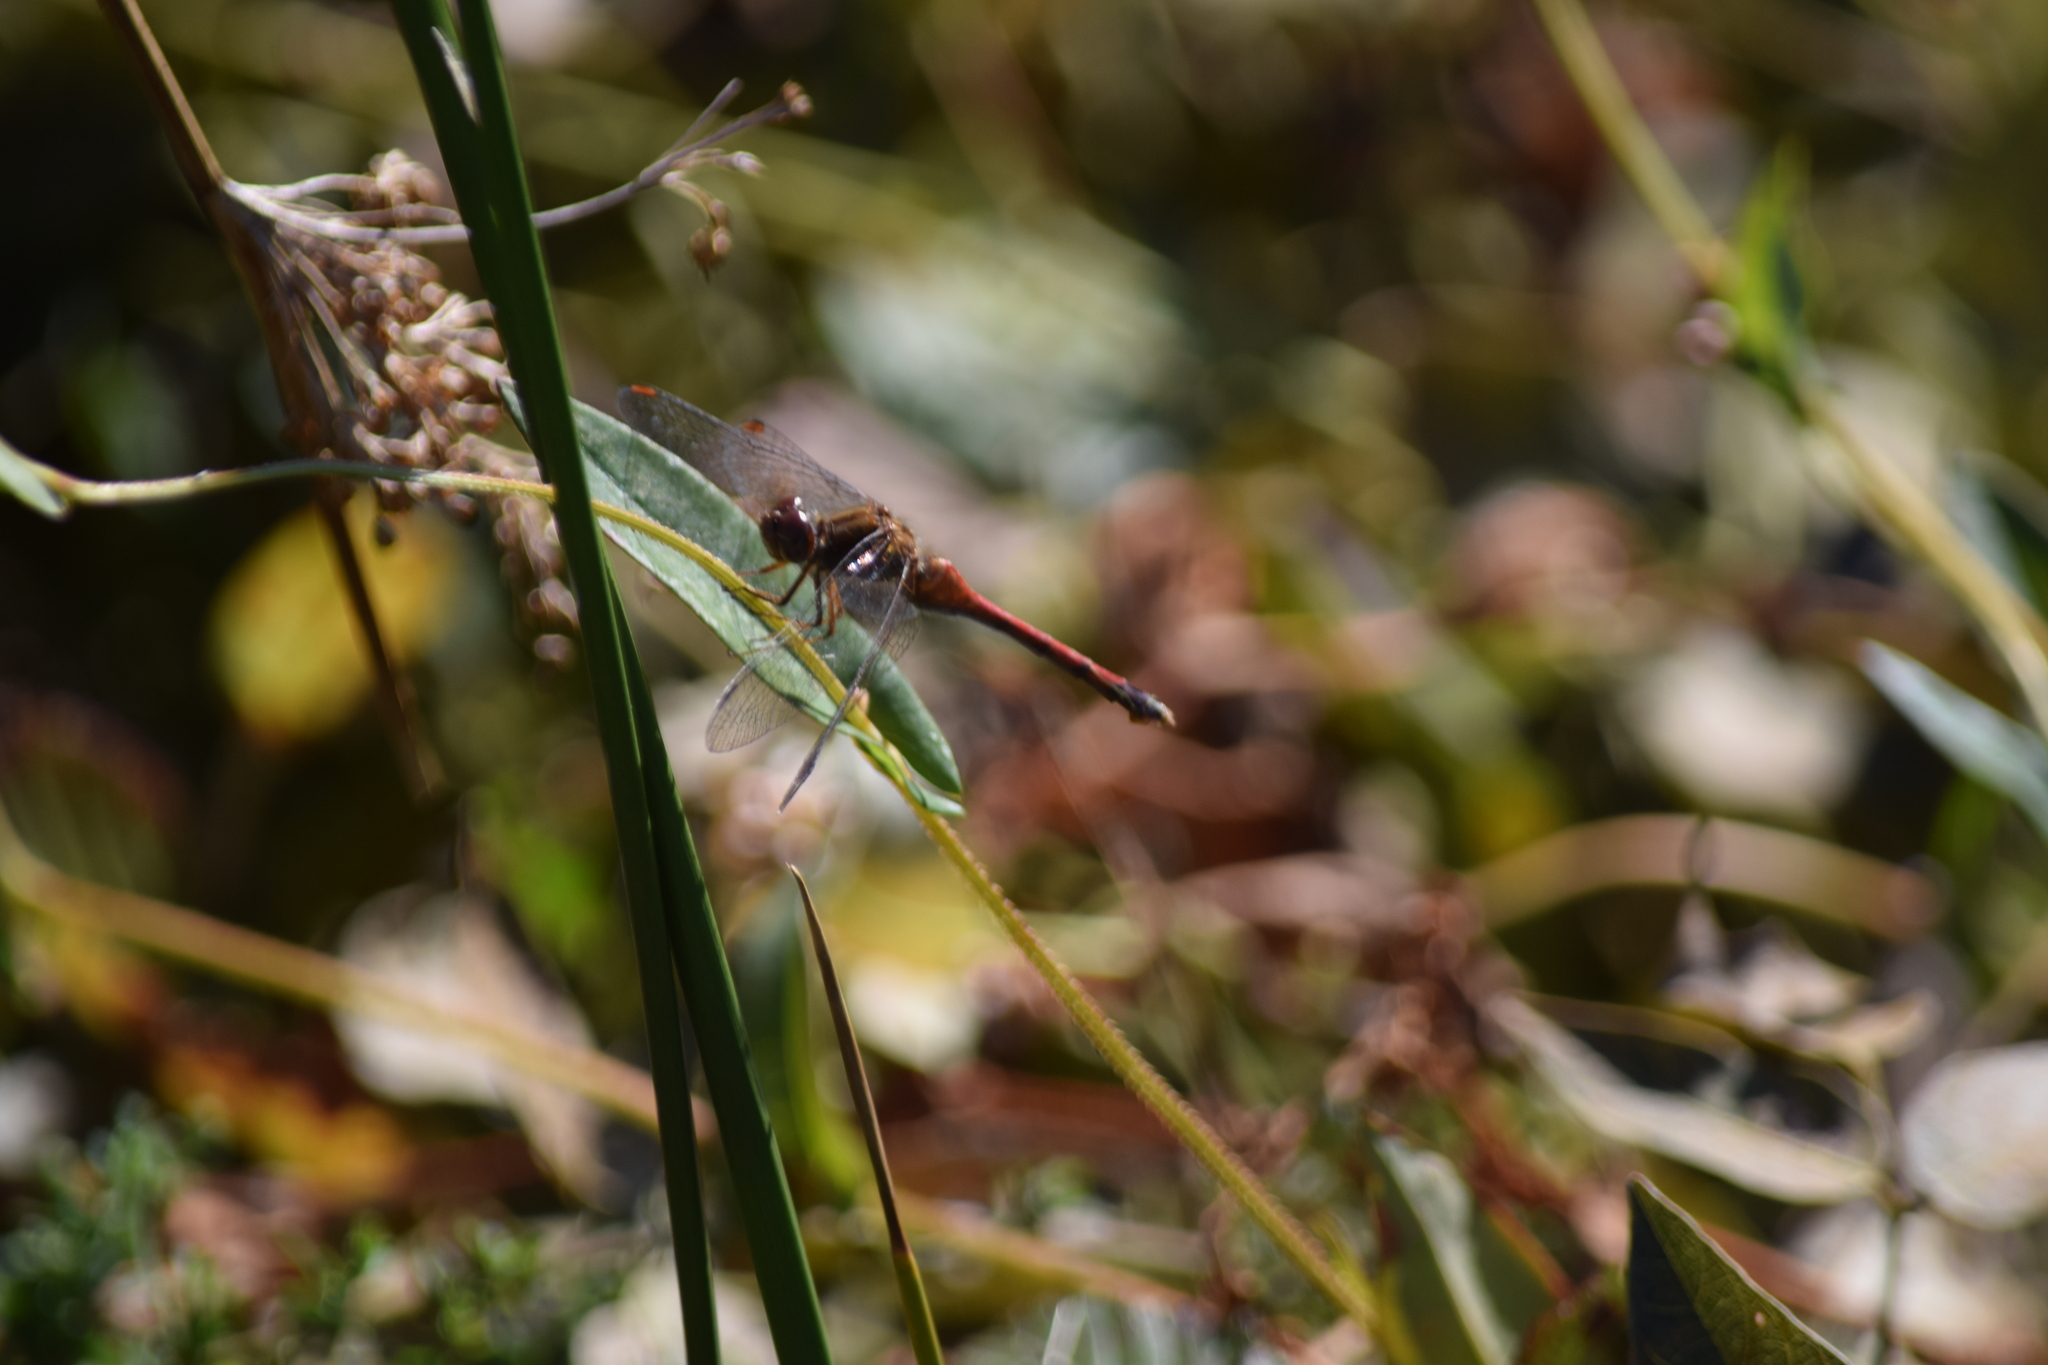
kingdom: Animalia
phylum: Arthropoda
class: Insecta
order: Odonata
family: Libellulidae
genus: Sympetrum
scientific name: Sympetrum vicinum
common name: Autumn meadowhawk
